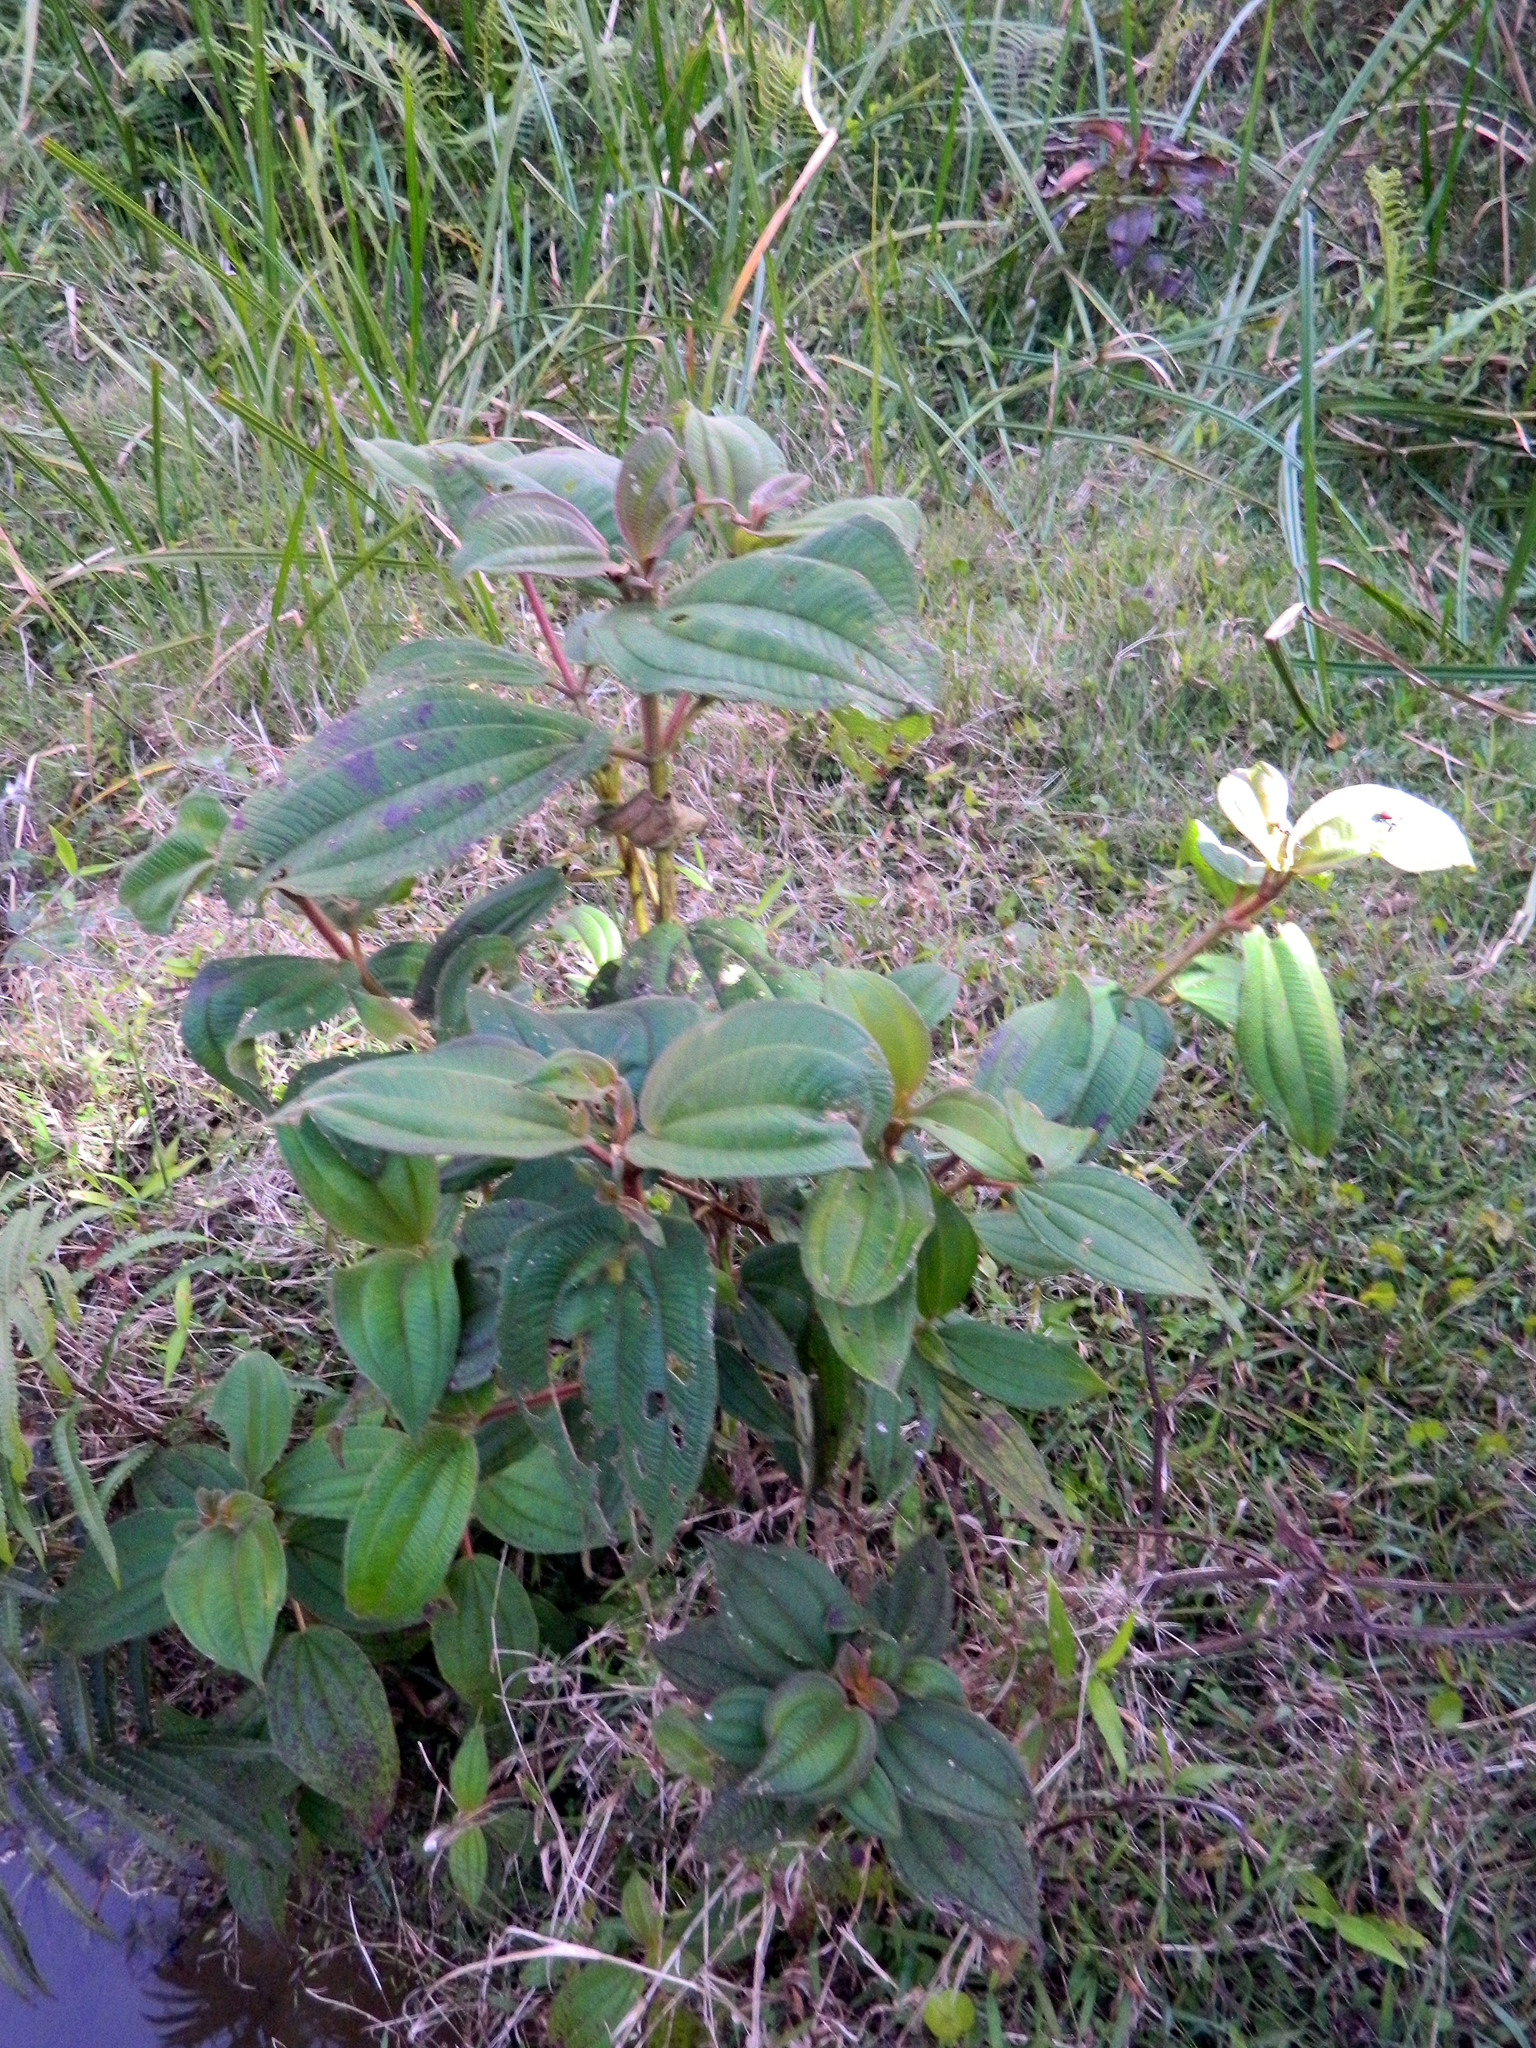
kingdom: Plantae
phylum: Tracheophyta
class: Magnoliopsida
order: Myrtales
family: Melastomataceae
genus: Dichaetanthera
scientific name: Dichaetanthera cordifolia
